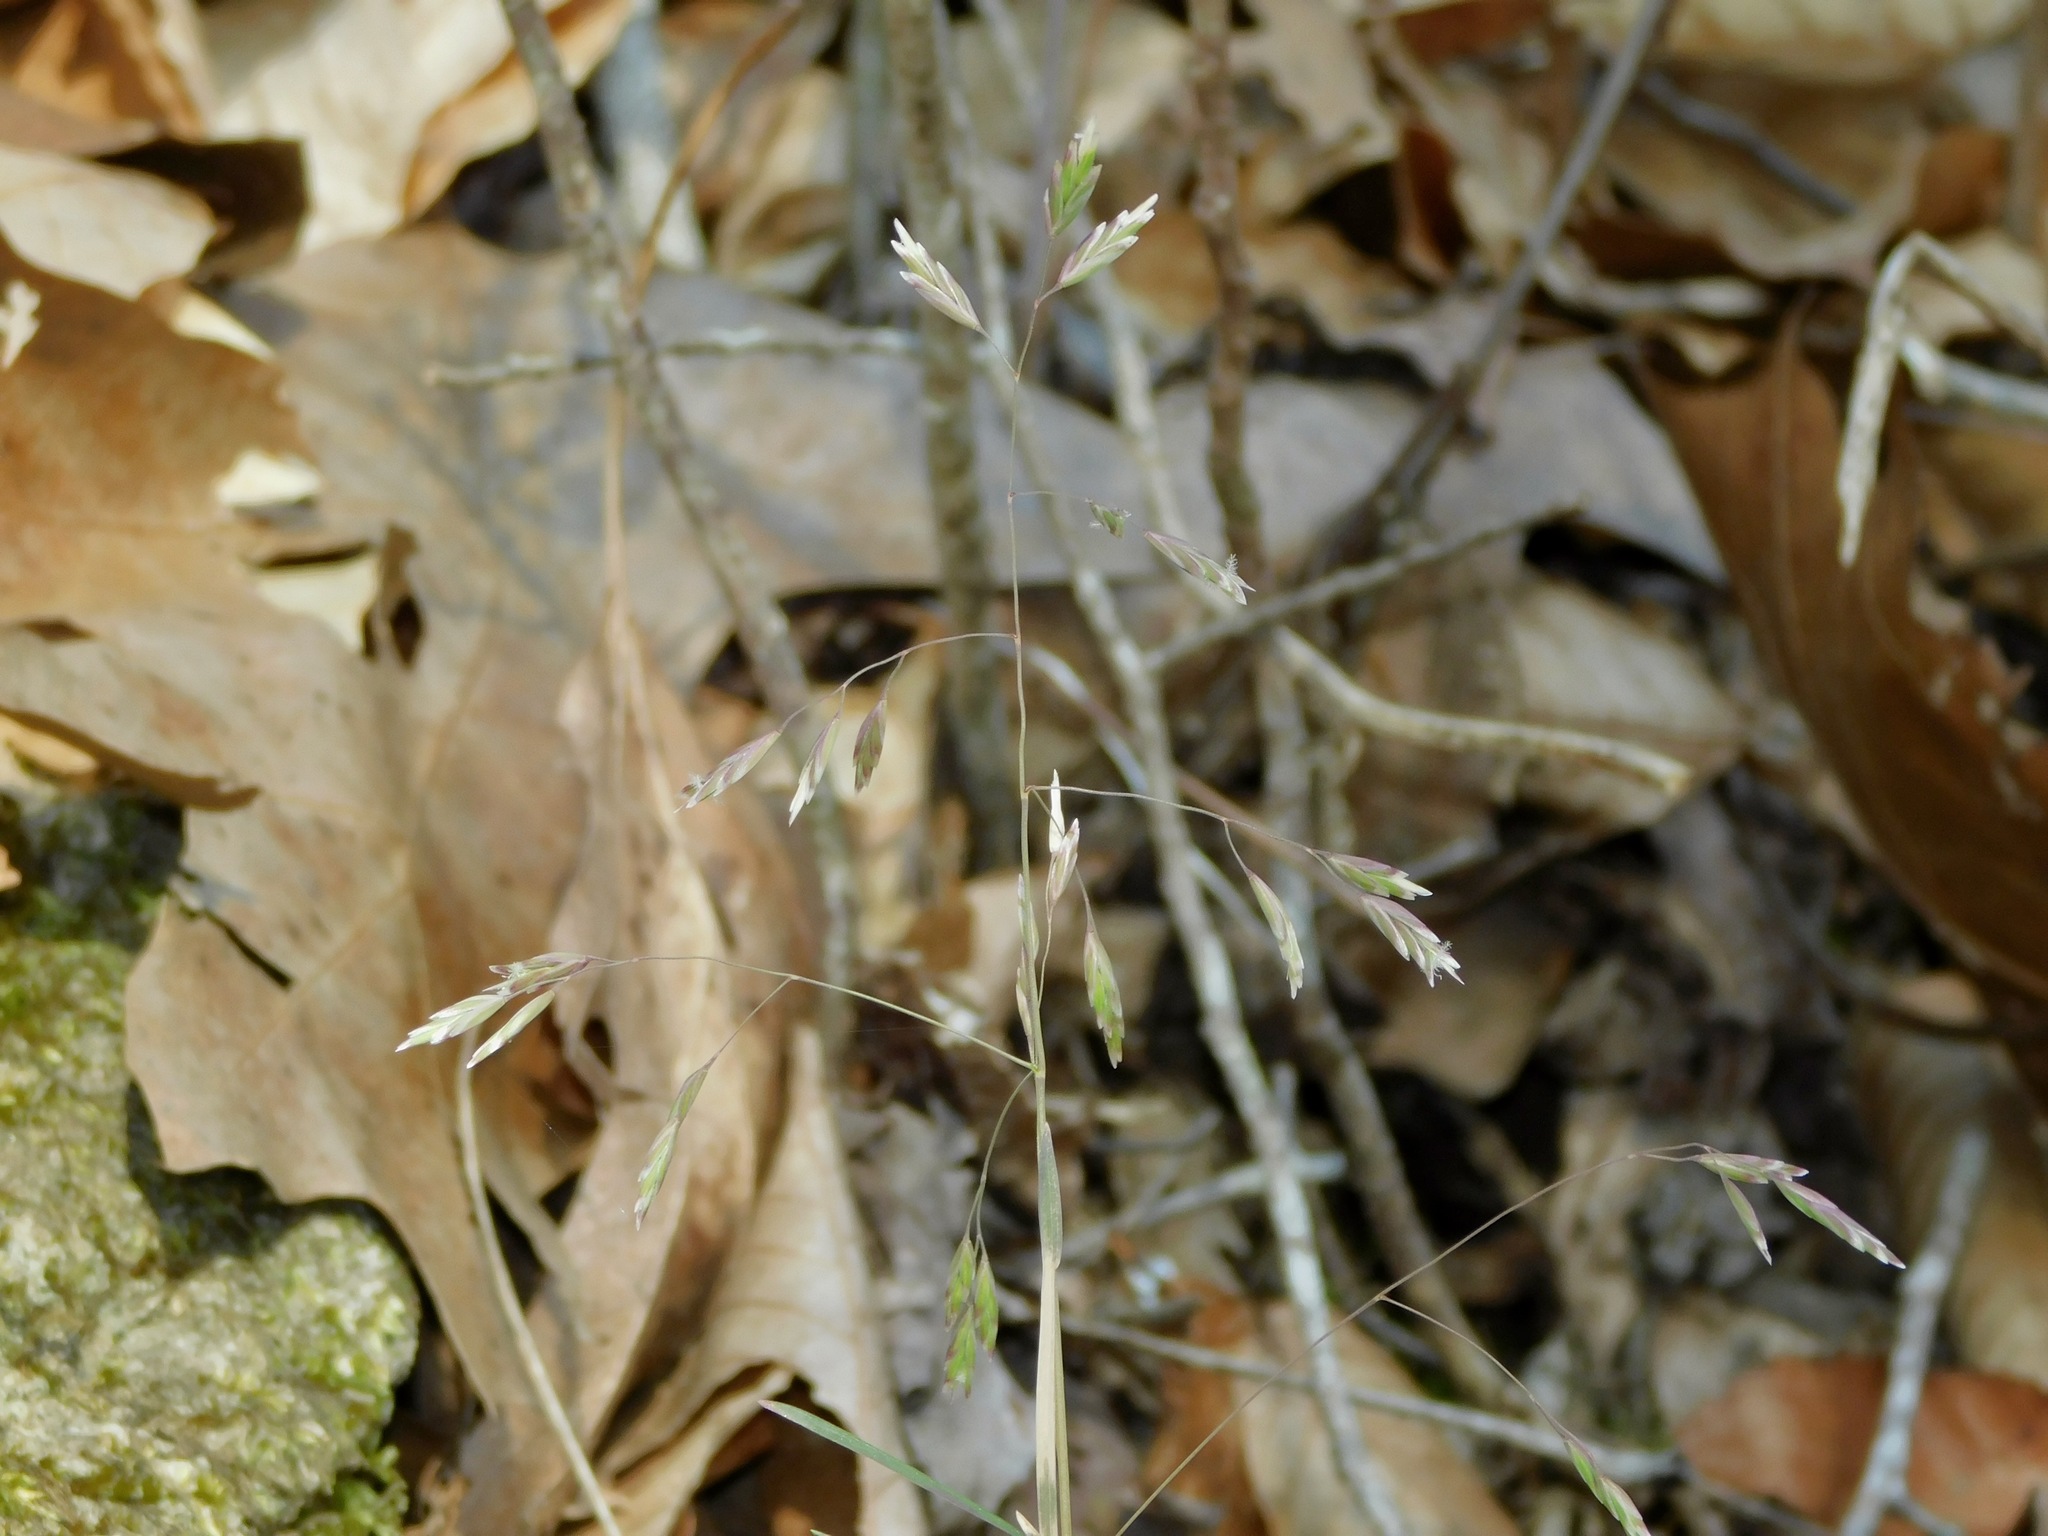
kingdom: Plantae
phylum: Tracheophyta
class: Liliopsida
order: Poales
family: Poaceae
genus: Poa
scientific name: Poa compressa
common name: Canada bluegrass
